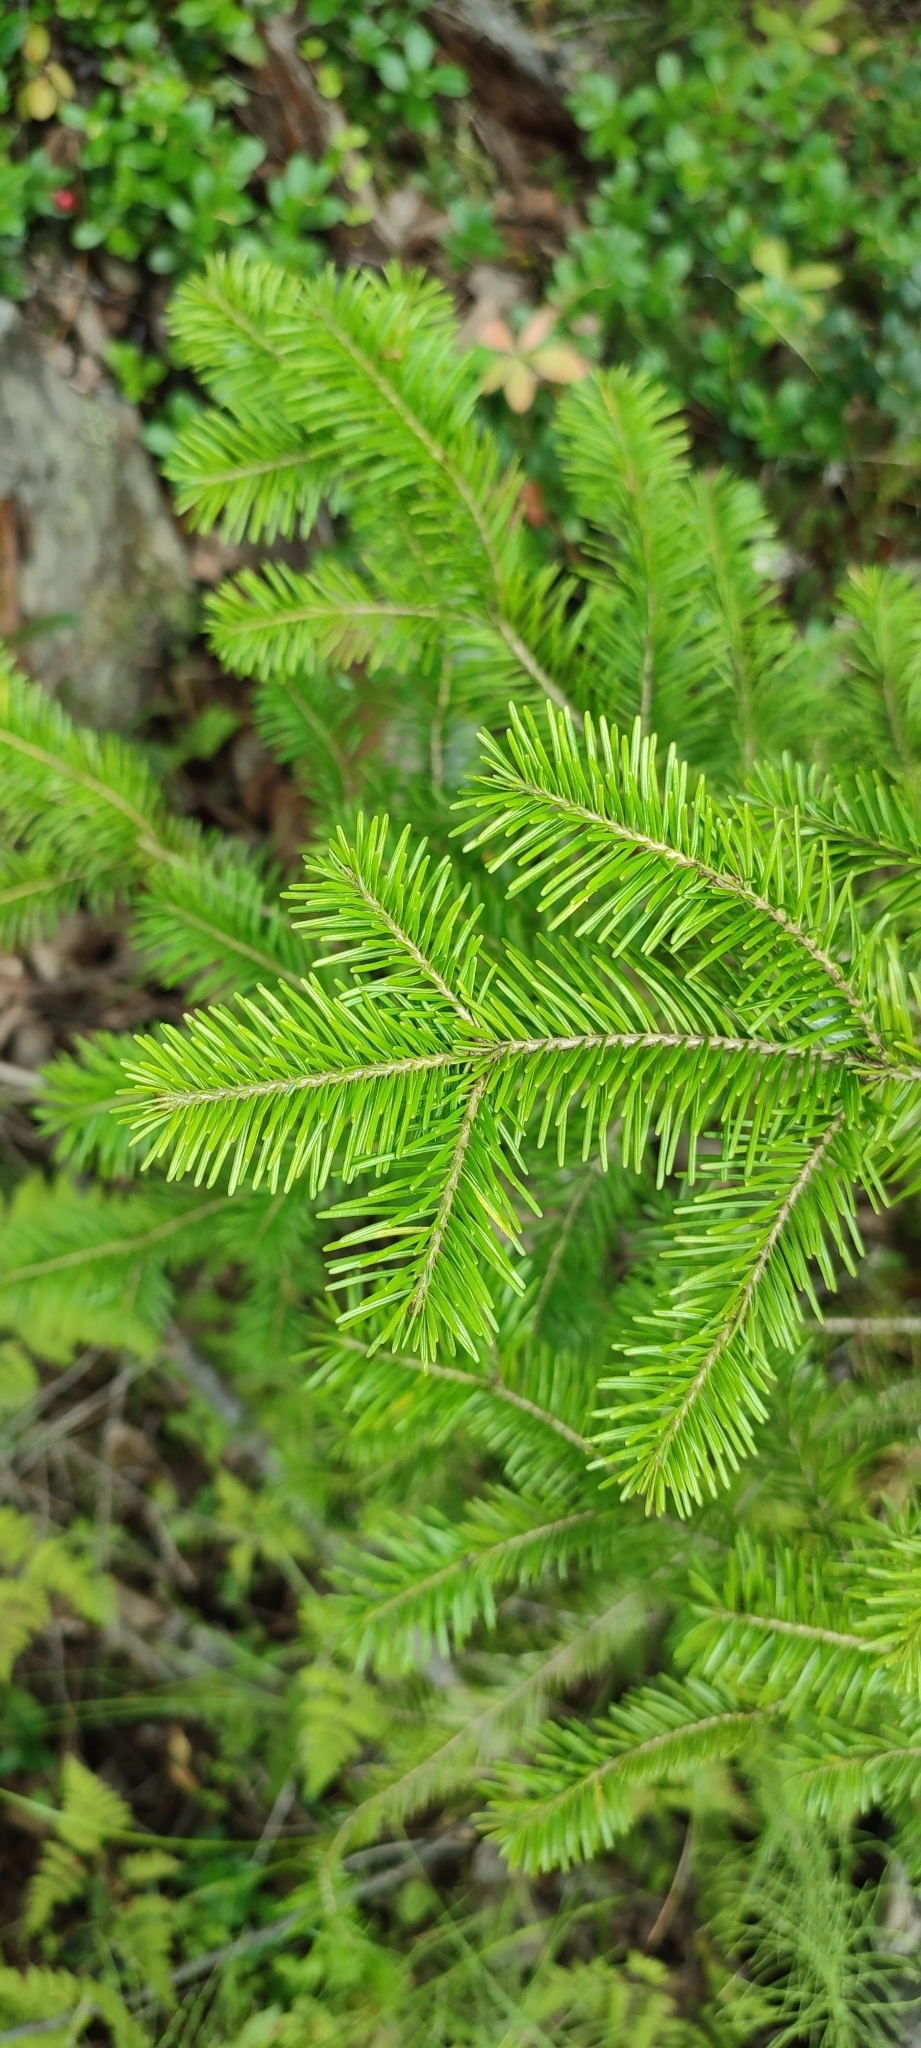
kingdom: Plantae
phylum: Tracheophyta
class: Pinopsida
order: Pinales
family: Pinaceae
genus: Abies
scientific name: Abies sibirica
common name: Siberian fir
